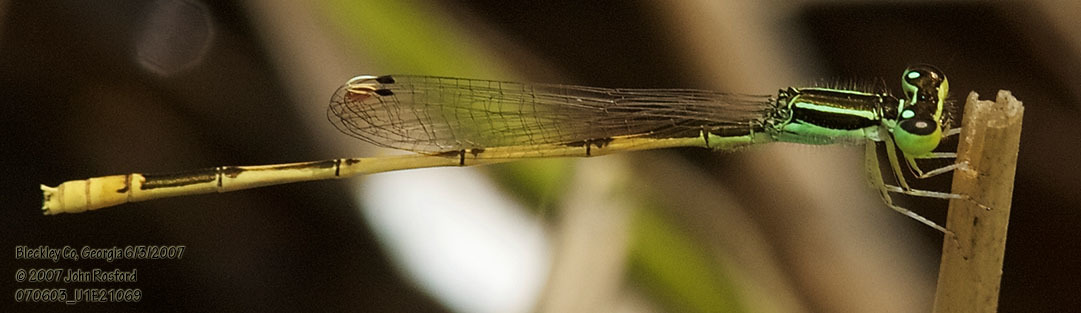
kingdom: Animalia
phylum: Arthropoda
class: Insecta
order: Odonata
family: Coenagrionidae
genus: Ischnura
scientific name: Ischnura hastata
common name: Citrine forktail
